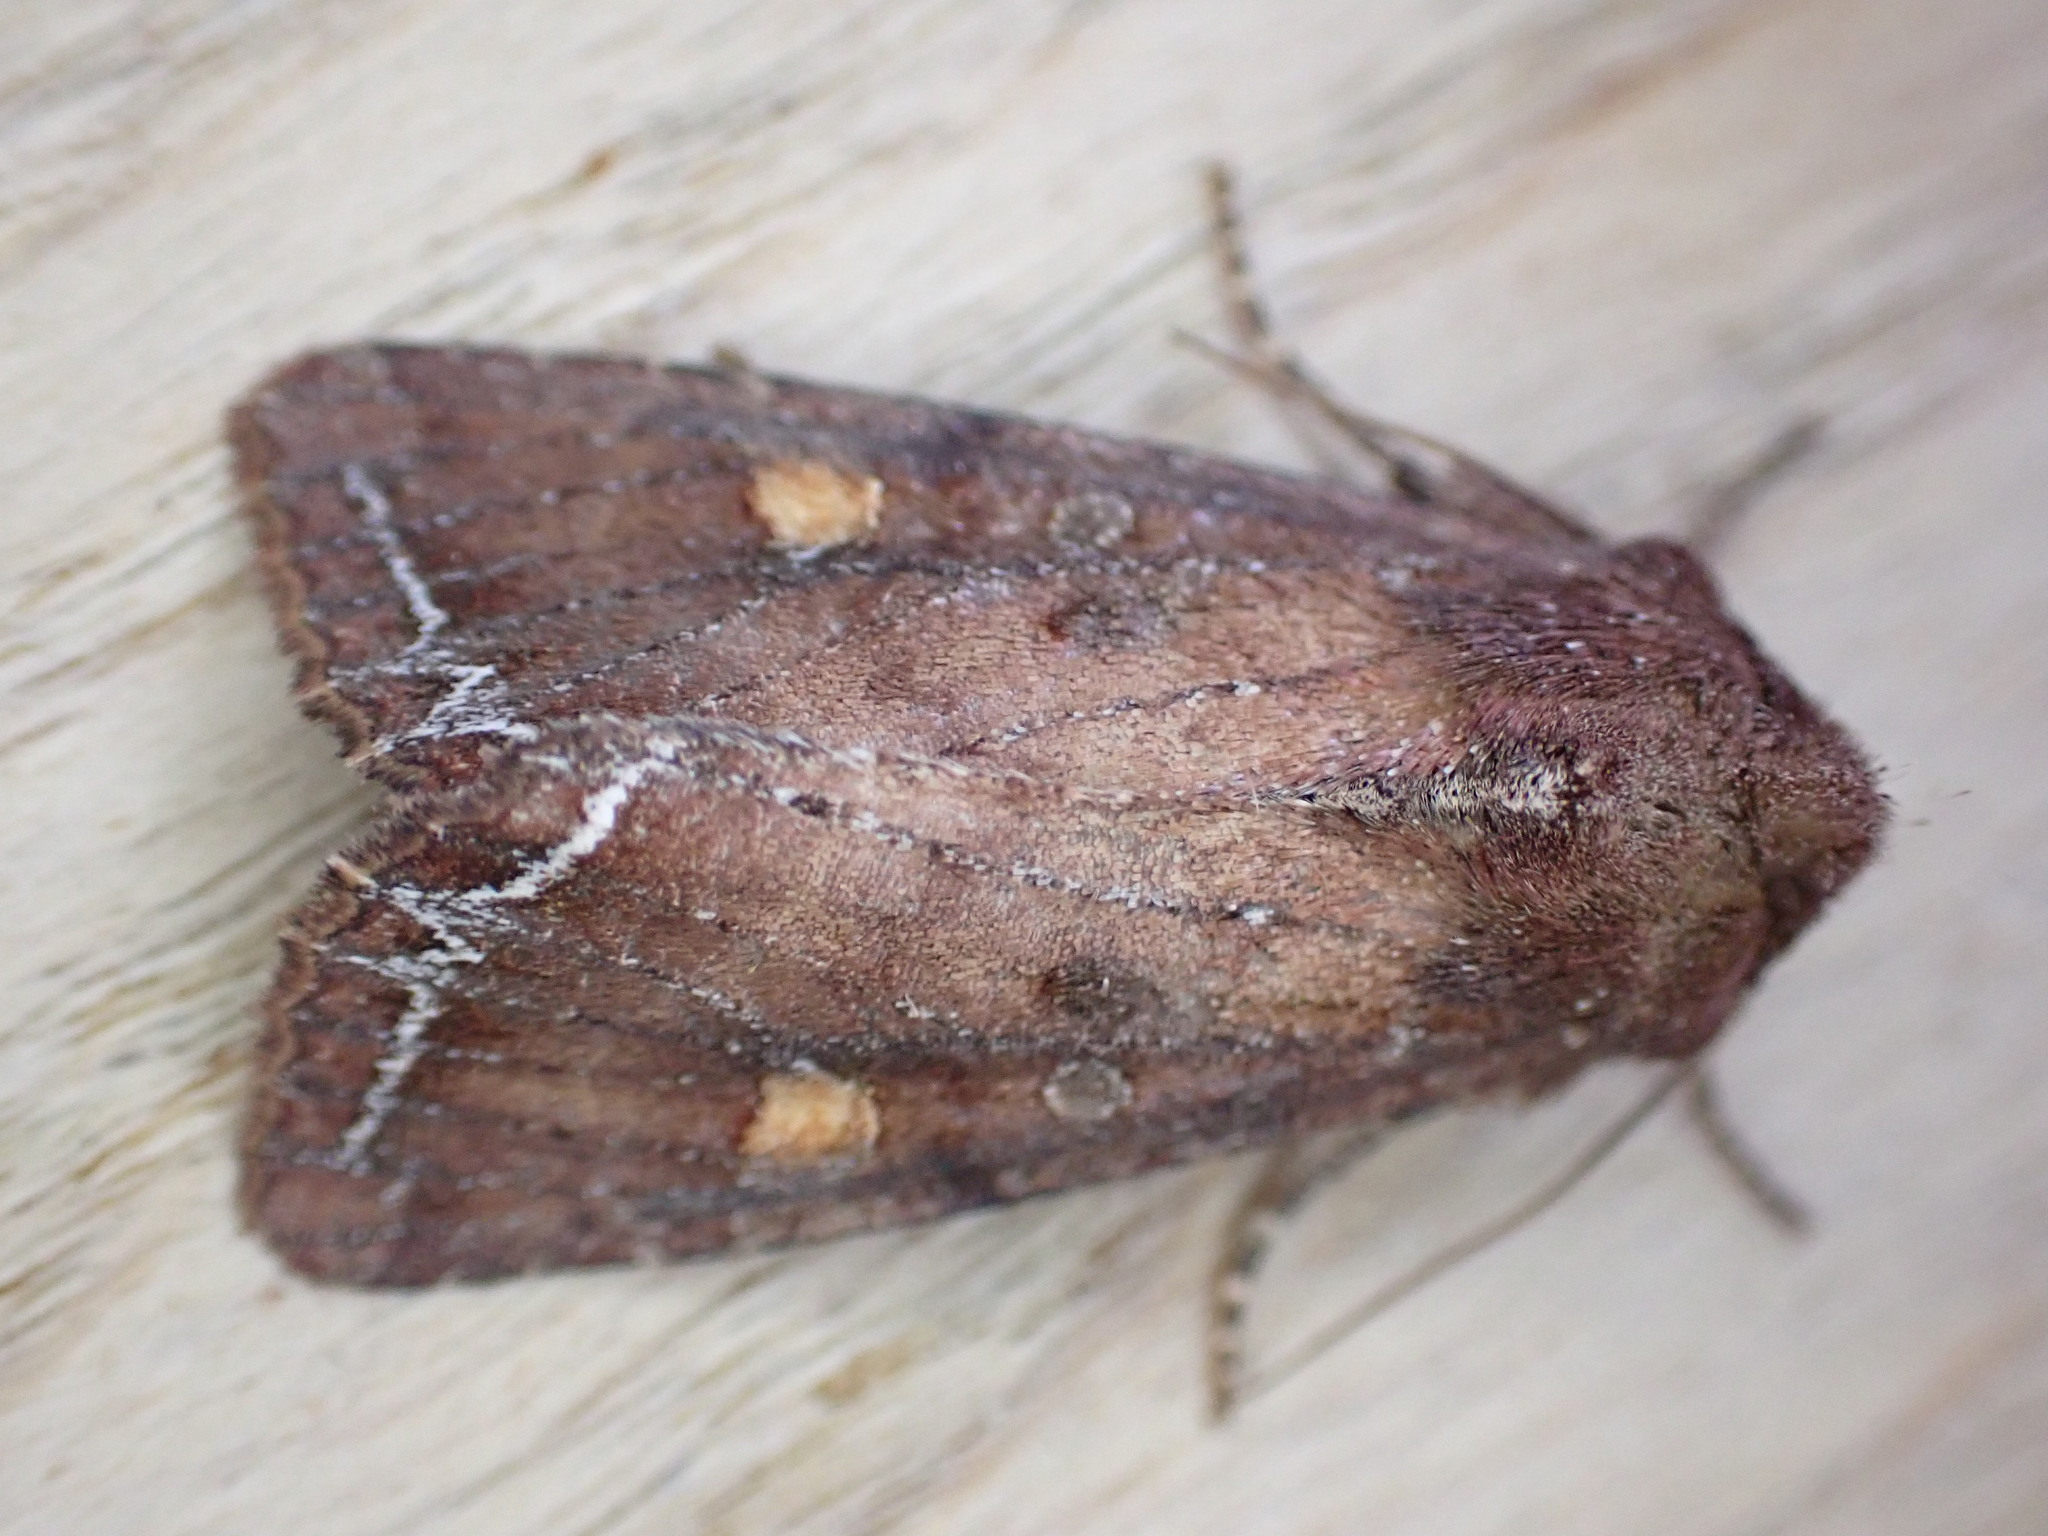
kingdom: Animalia
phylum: Arthropoda
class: Insecta
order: Lepidoptera
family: Noctuidae
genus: Lacanobia
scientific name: Lacanobia oleracea
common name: Bright-line brown-eye
